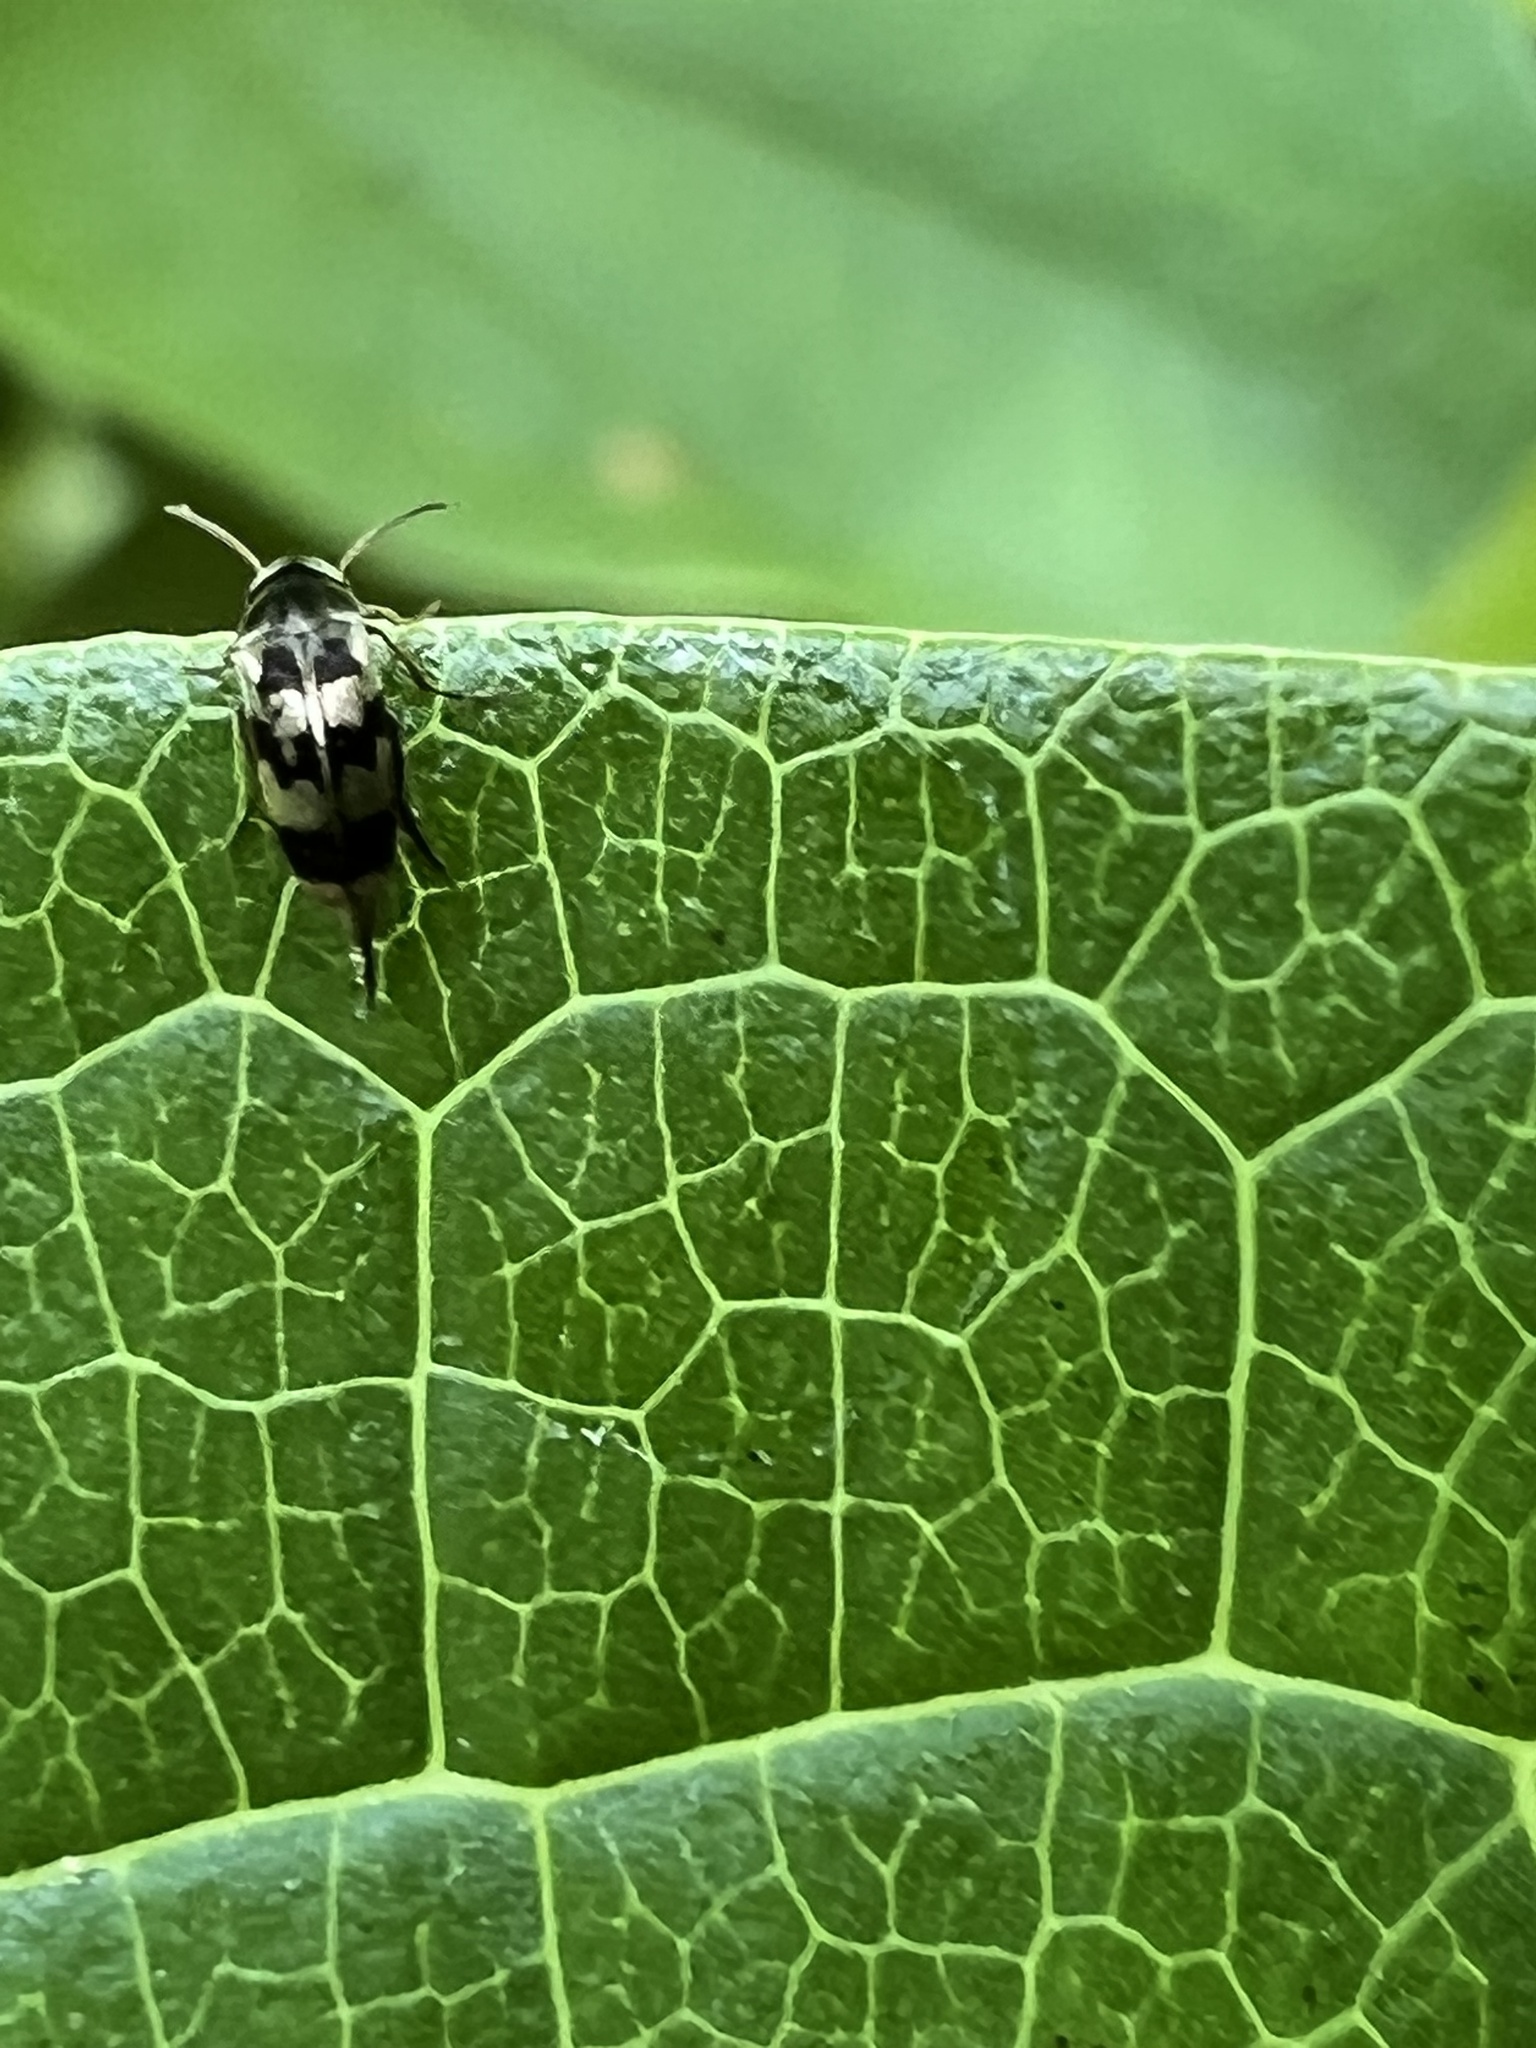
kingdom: Animalia
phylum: Arthropoda
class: Insecta
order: Coleoptera
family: Mordellidae
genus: Falsomordellistena
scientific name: Falsomordellistena pubescens
